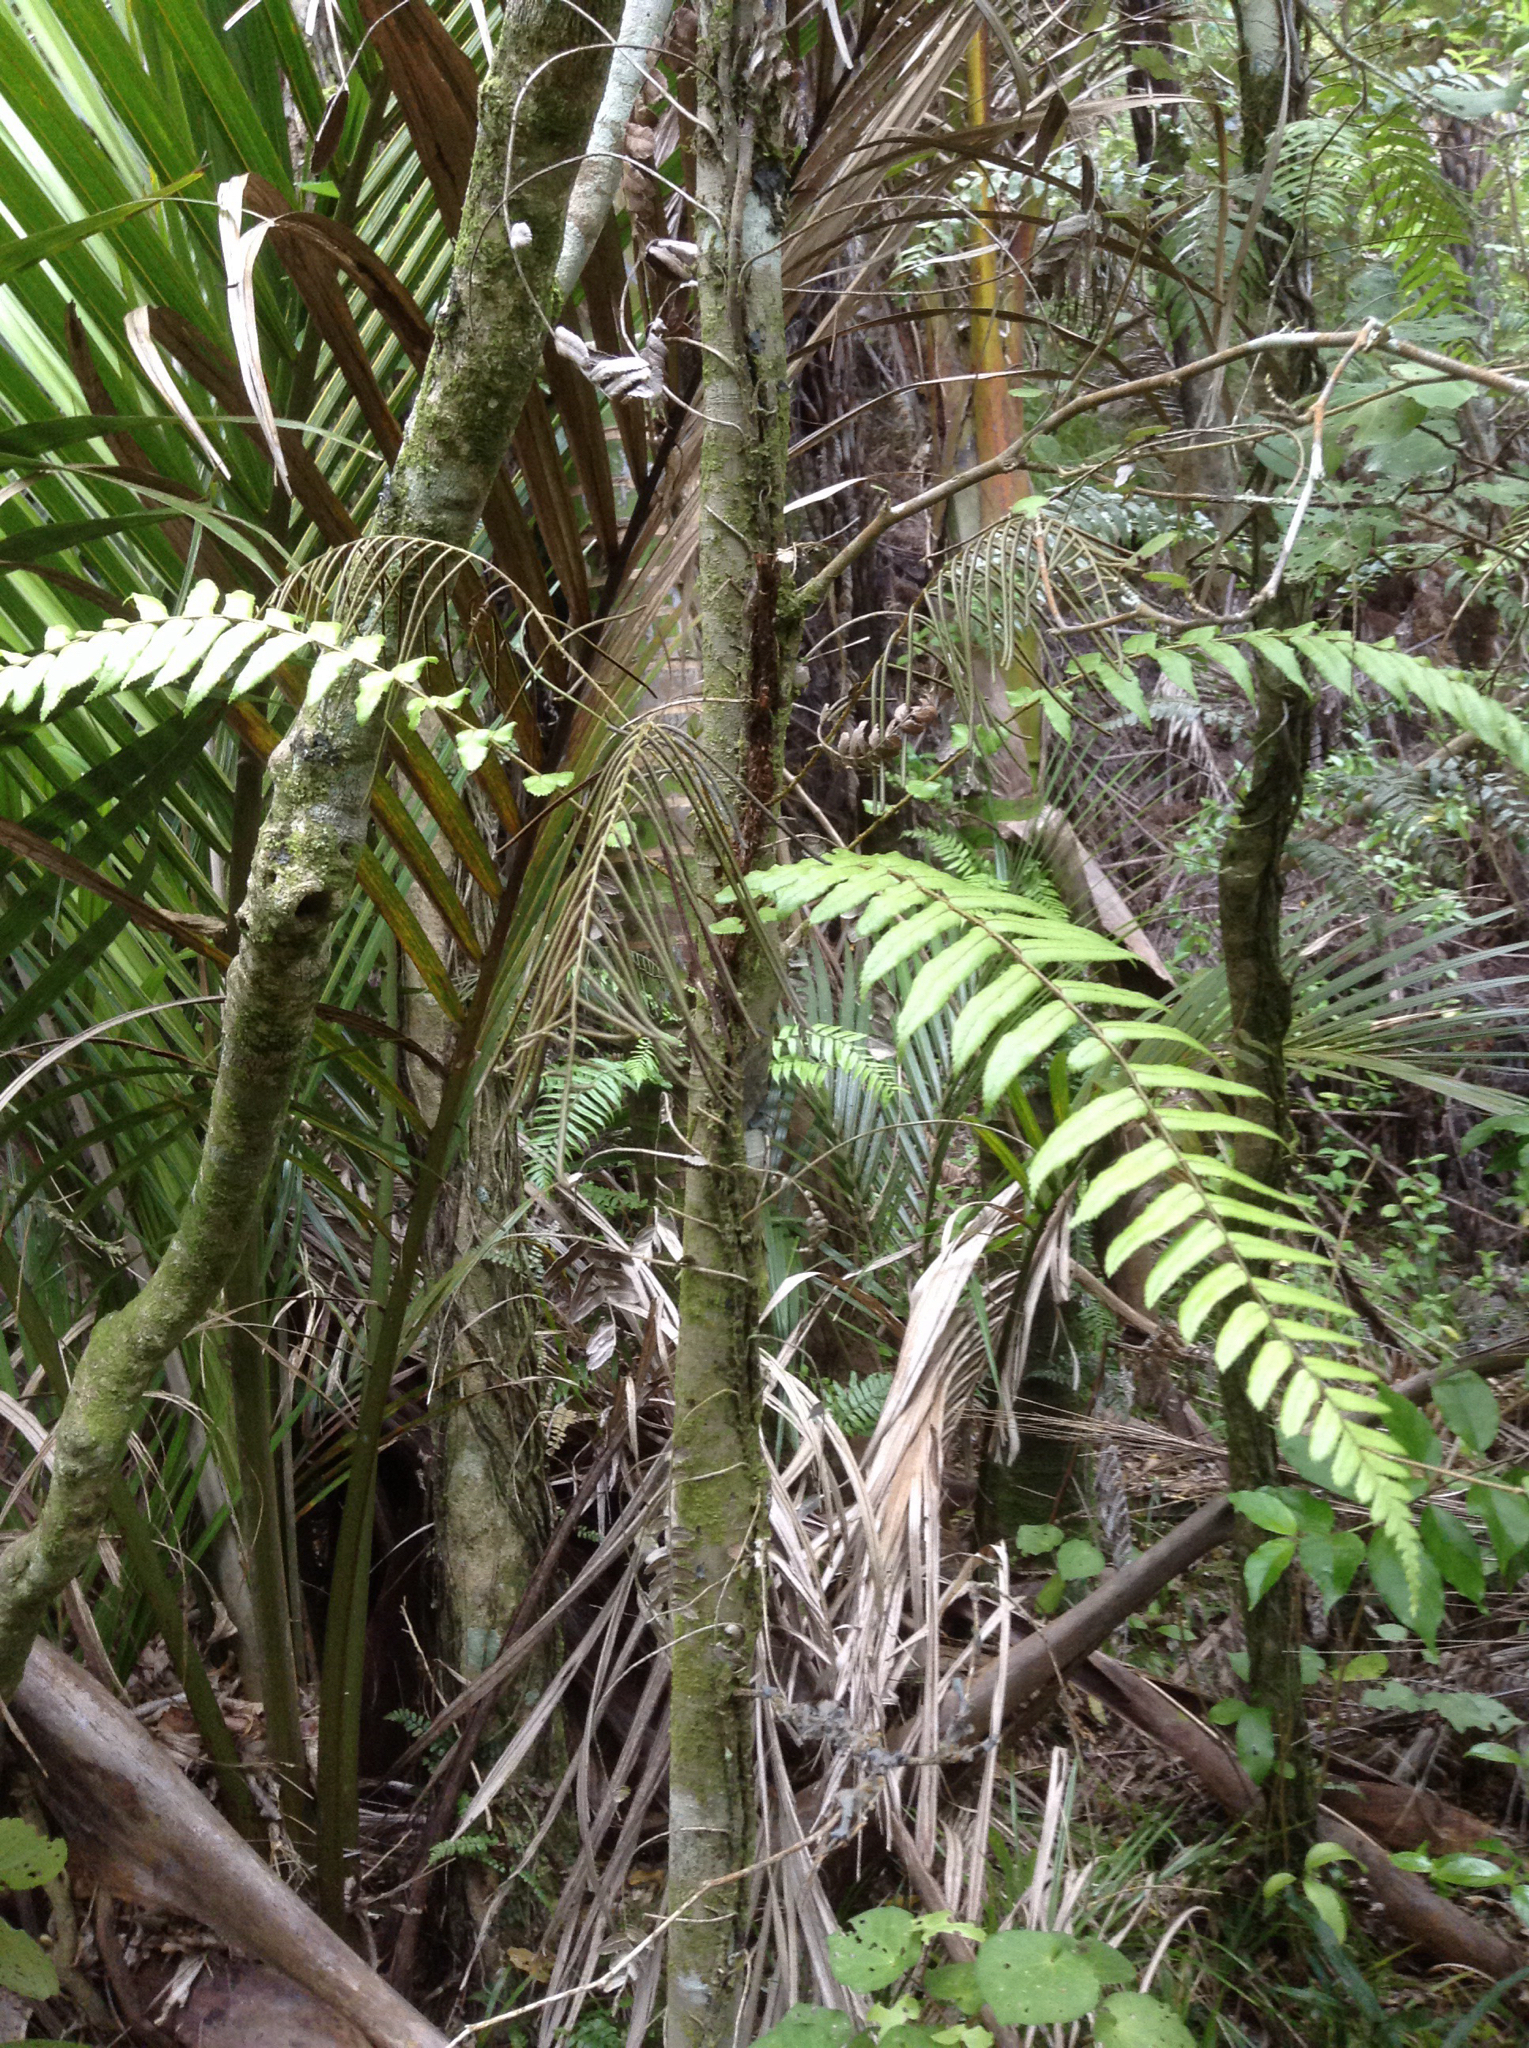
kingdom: Plantae
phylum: Tracheophyta
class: Polypodiopsida
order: Polypodiales
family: Blechnaceae
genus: Icarus
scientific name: Icarus filiformis
